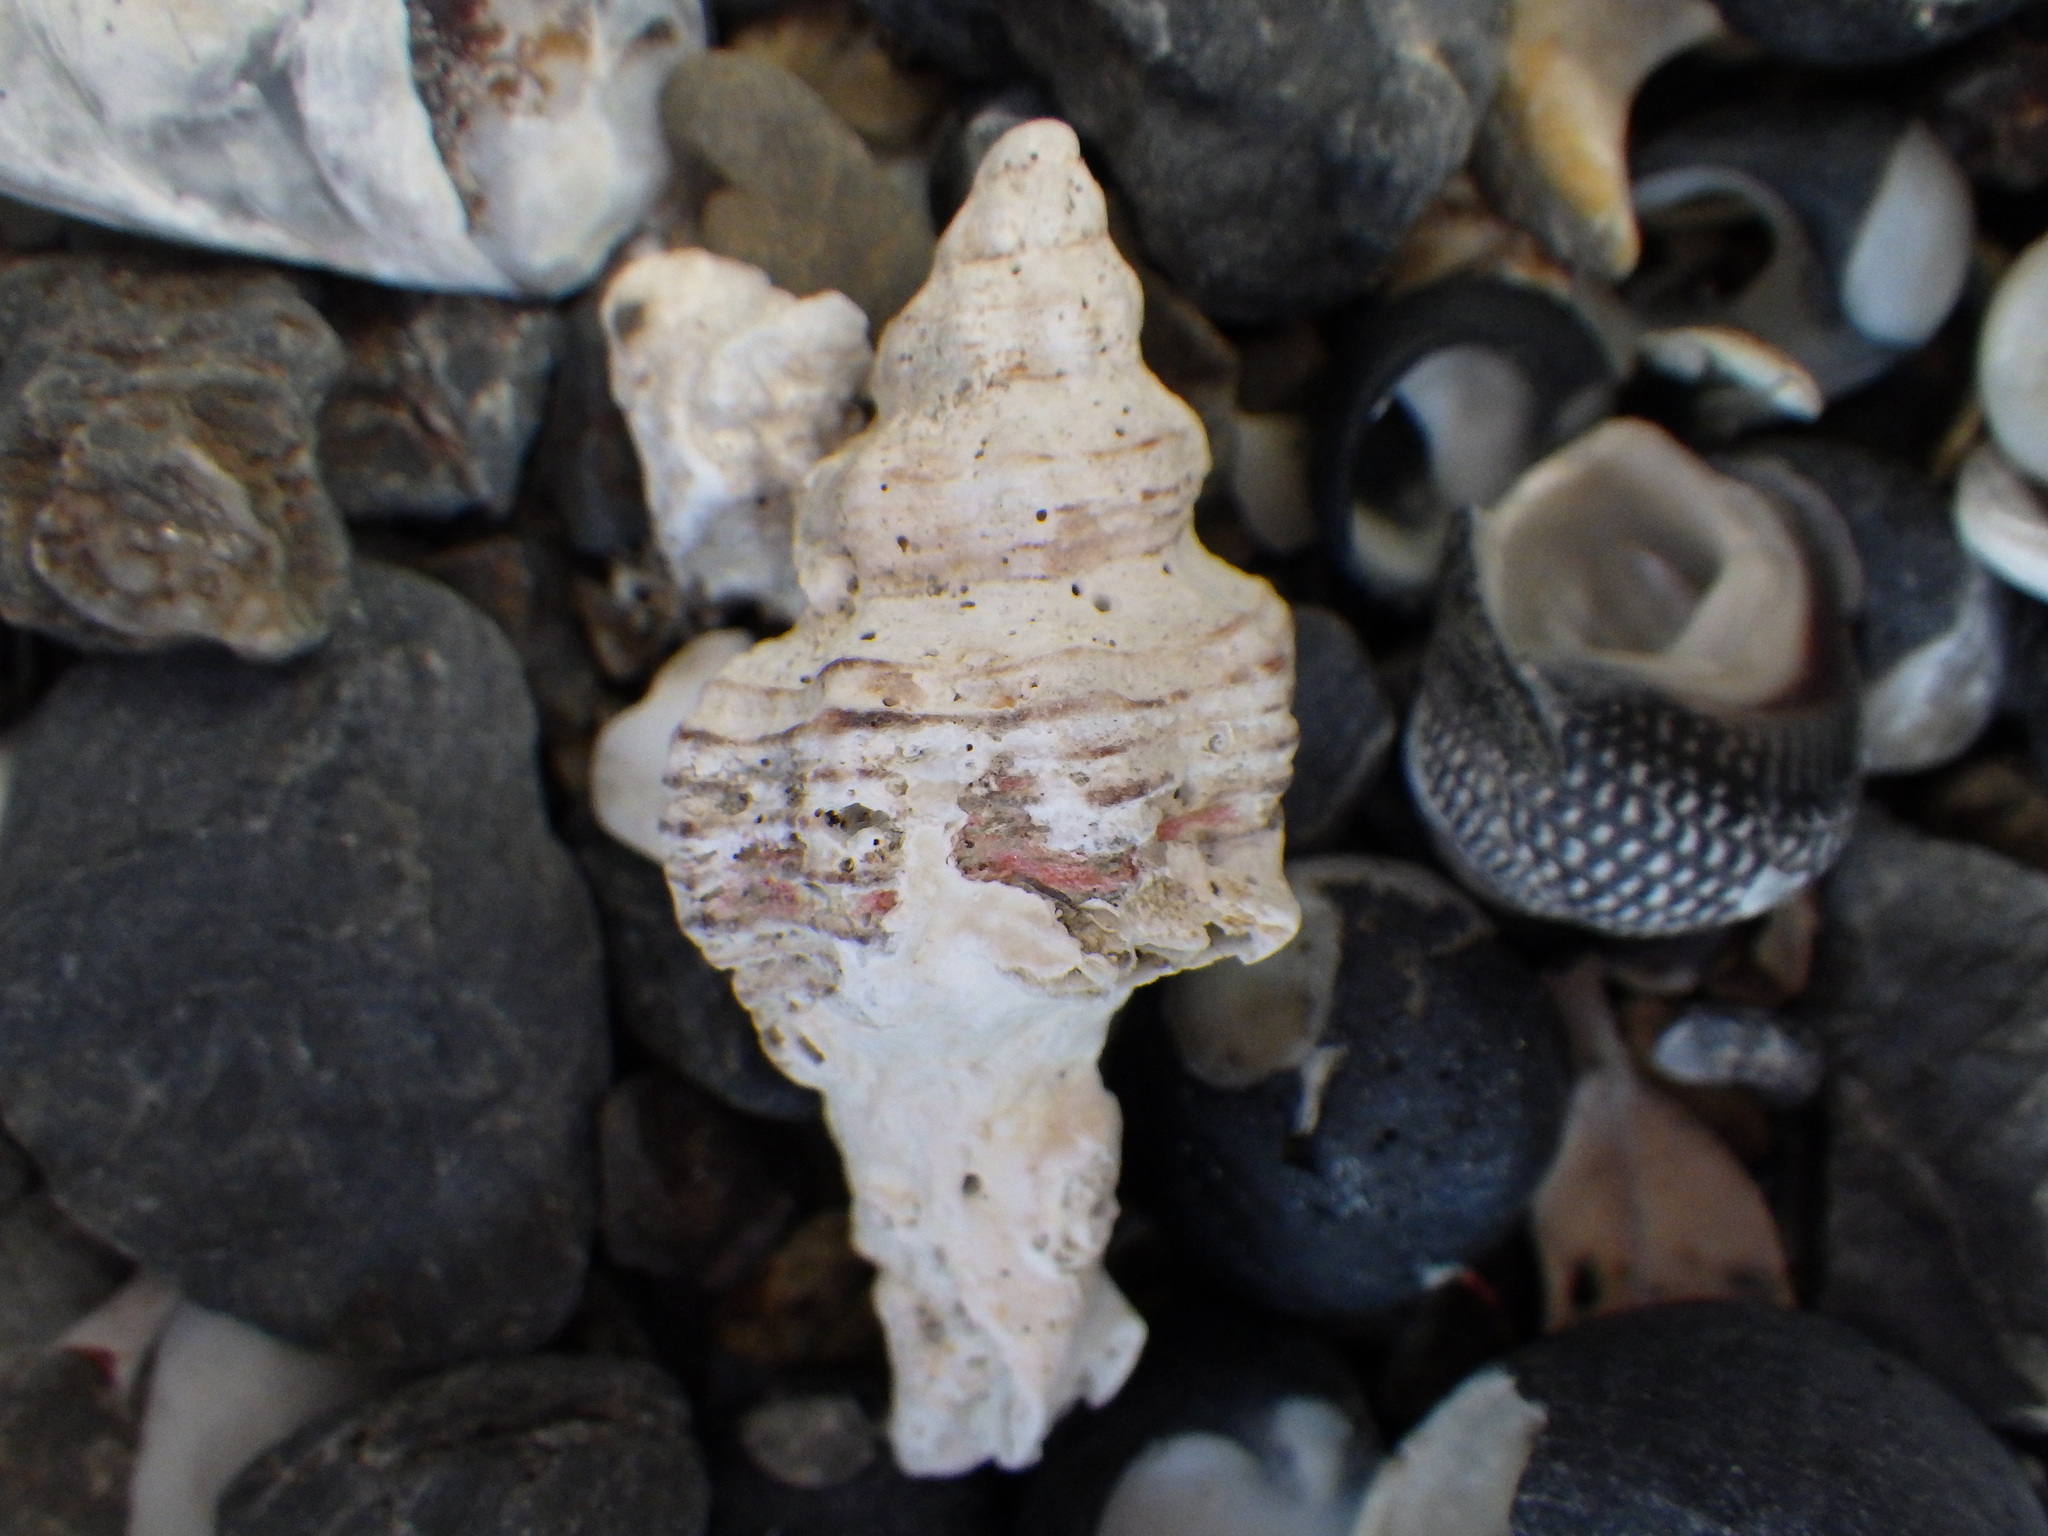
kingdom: Animalia
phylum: Mollusca
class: Gastropoda
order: Neogastropoda
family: Muricidae
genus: Murexsul
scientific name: Murexsul octogonus
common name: Octagon murex
